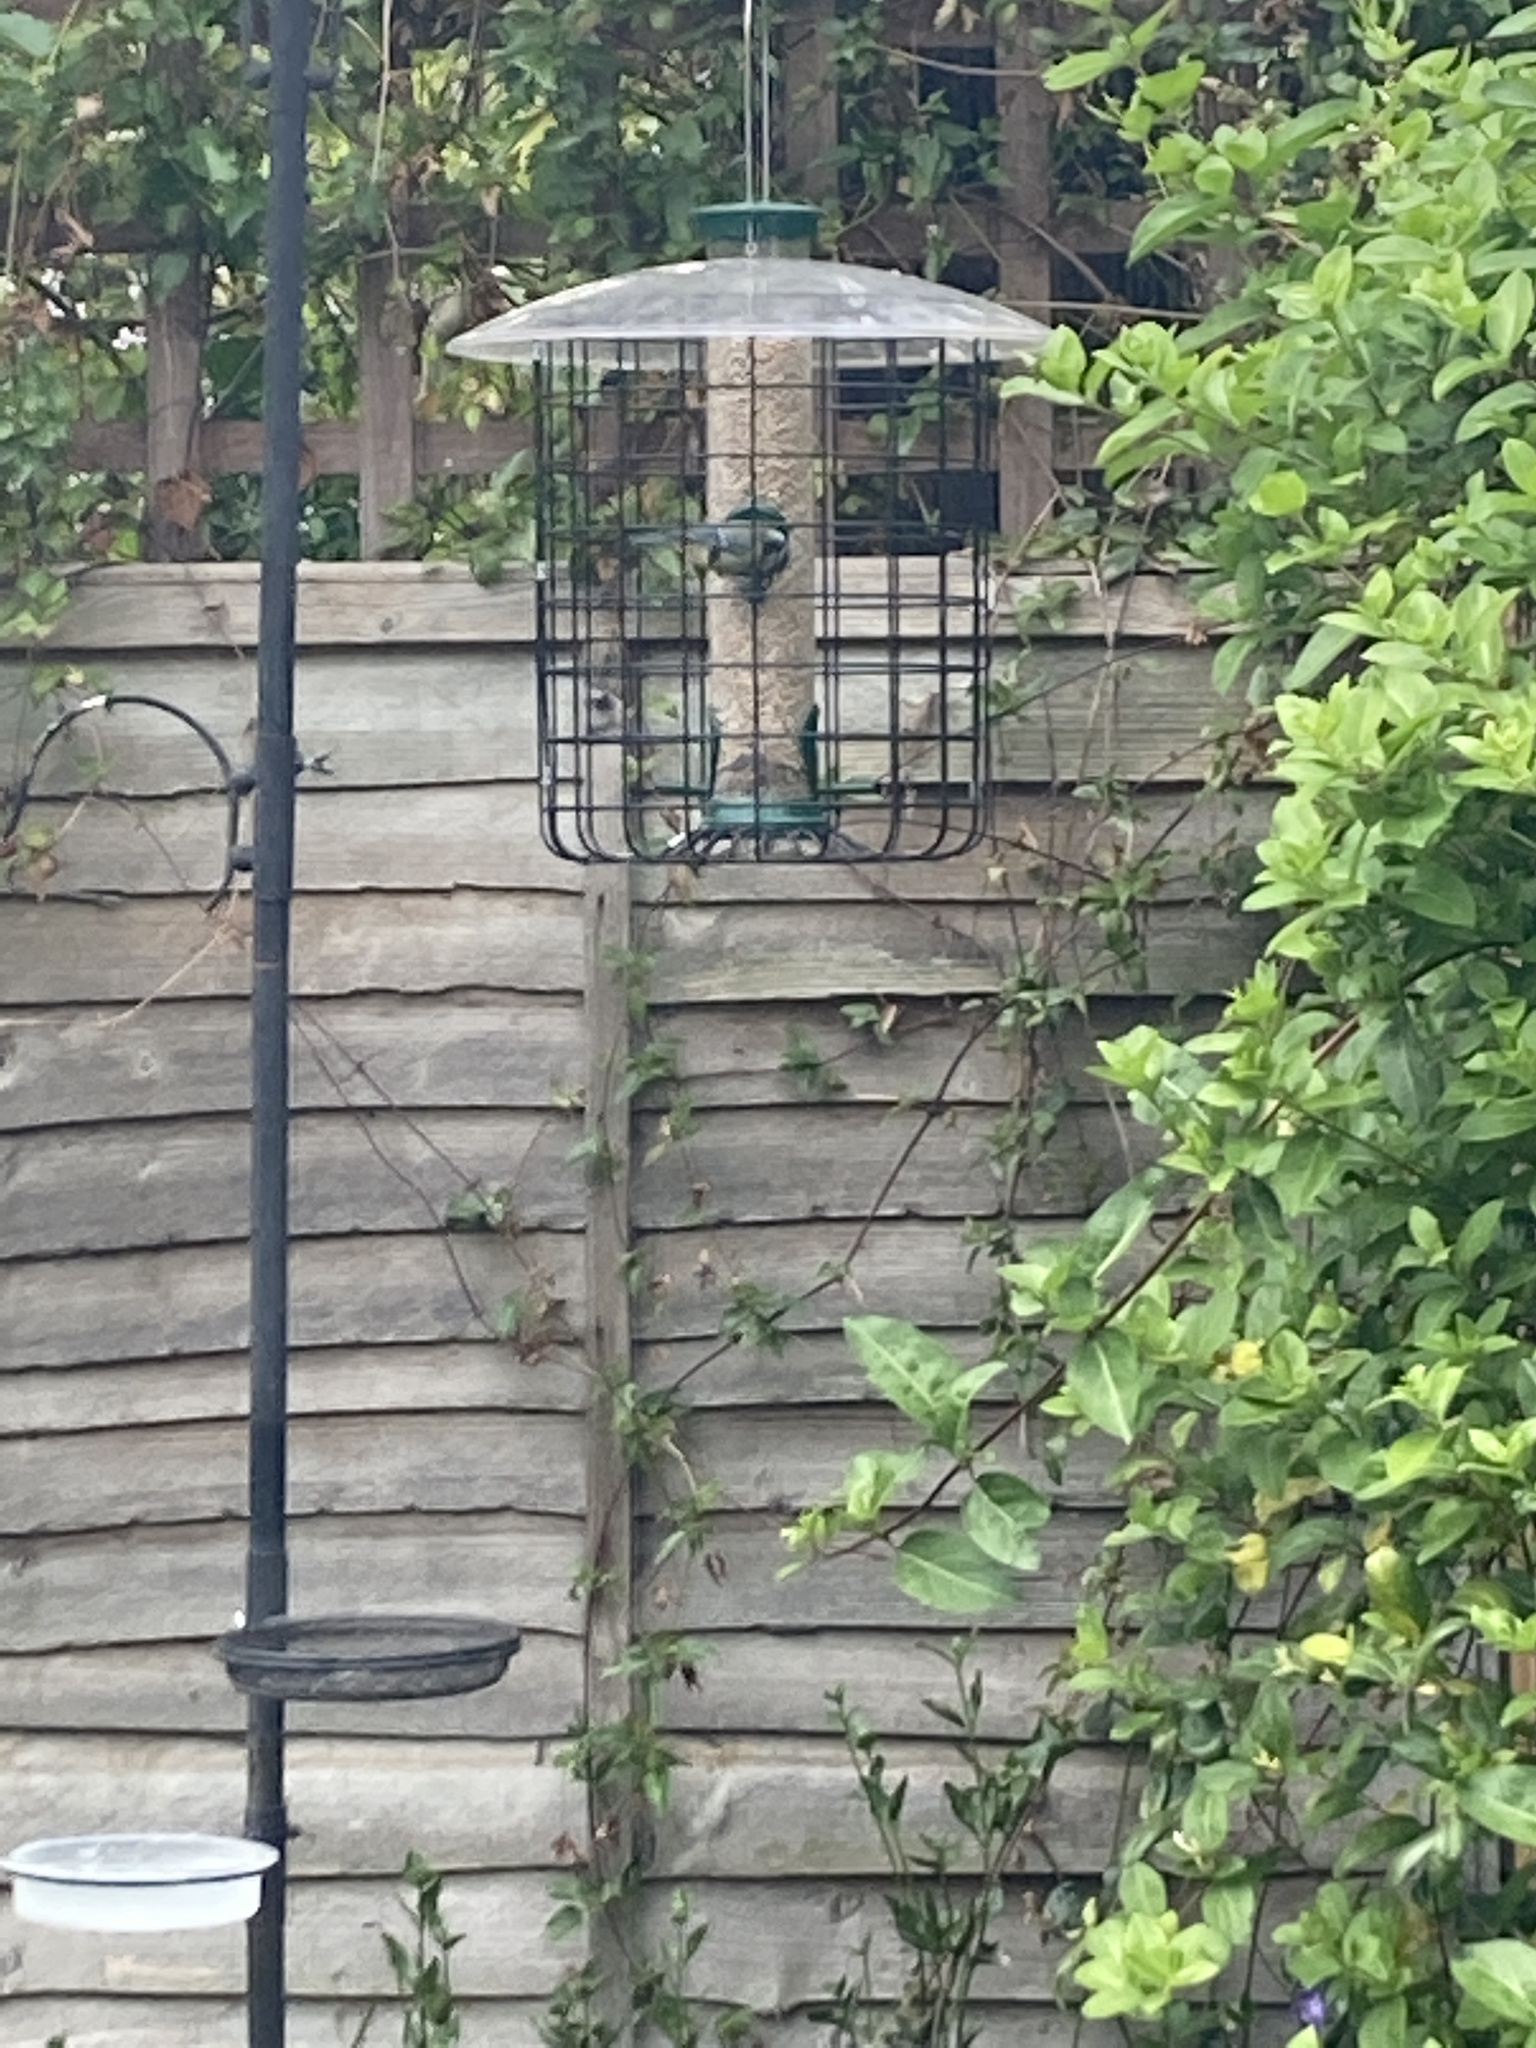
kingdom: Animalia
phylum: Chordata
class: Aves
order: Passeriformes
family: Paridae
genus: Cyanistes
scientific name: Cyanistes caeruleus
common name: Eurasian blue tit
